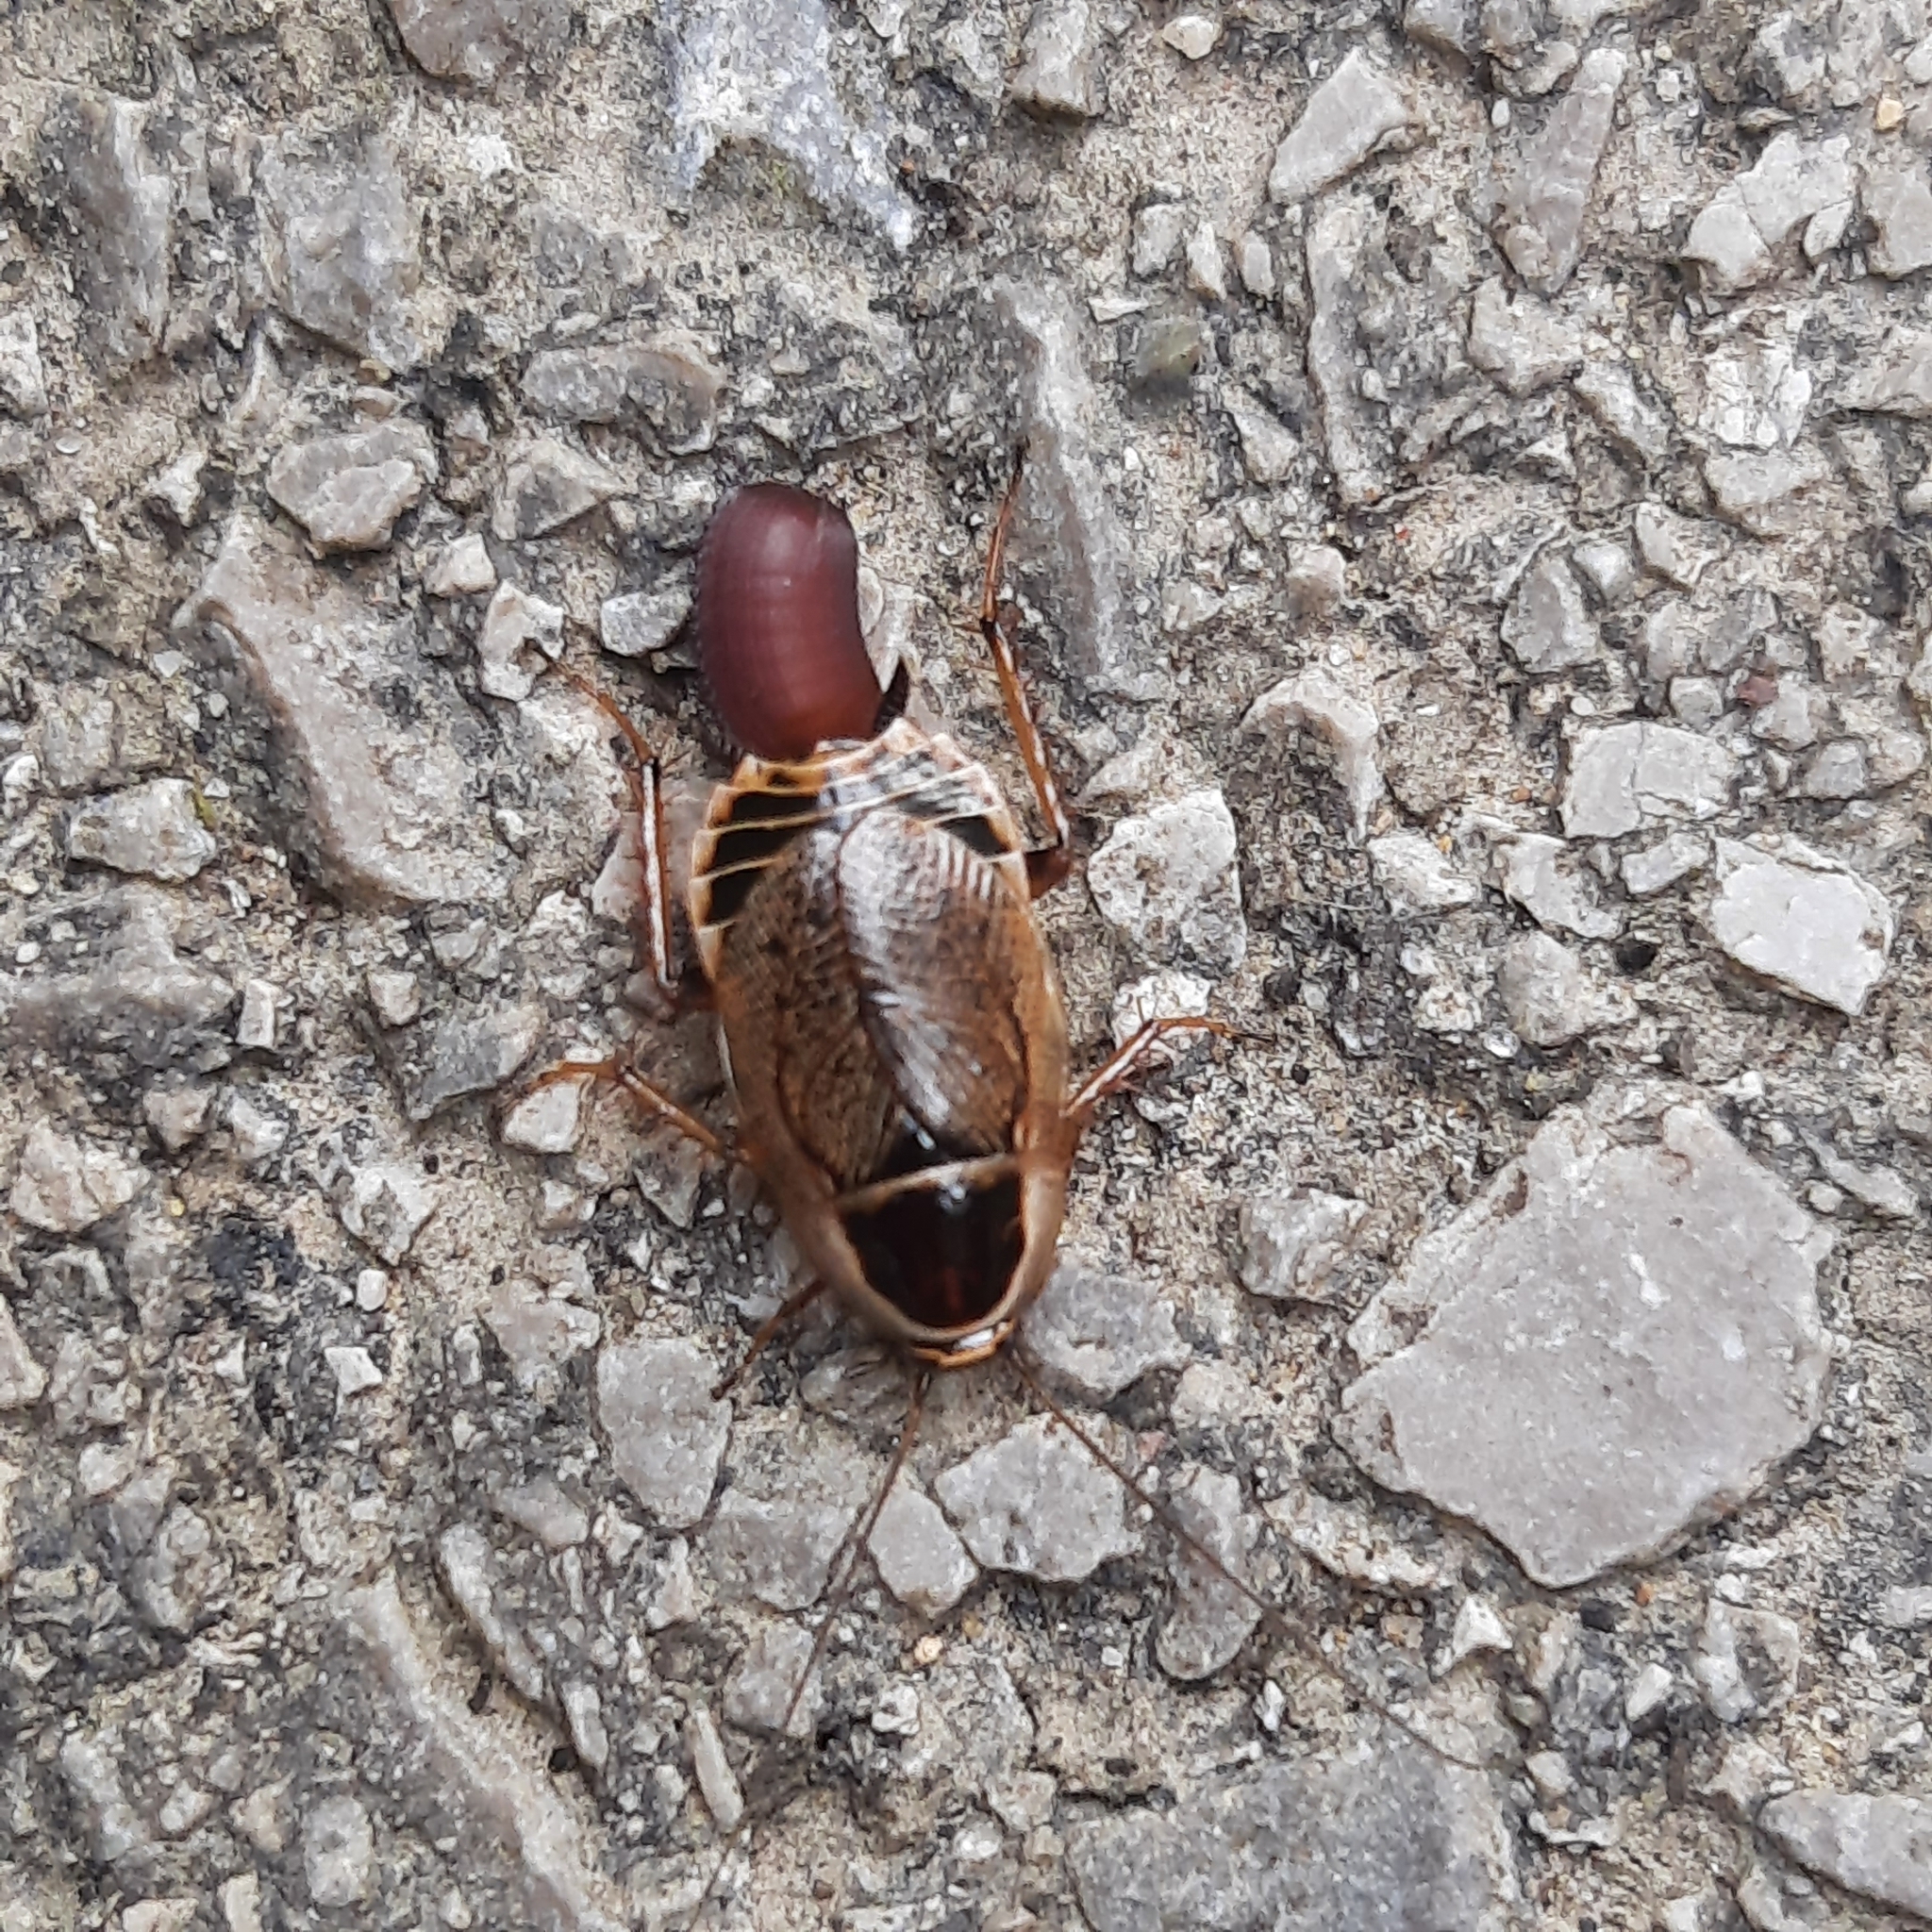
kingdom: Animalia
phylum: Arthropoda
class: Insecta
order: Blattodea
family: Ectobiidae
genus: Ectobius
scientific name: Ectobius sylvestris
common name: Forest cockroach
